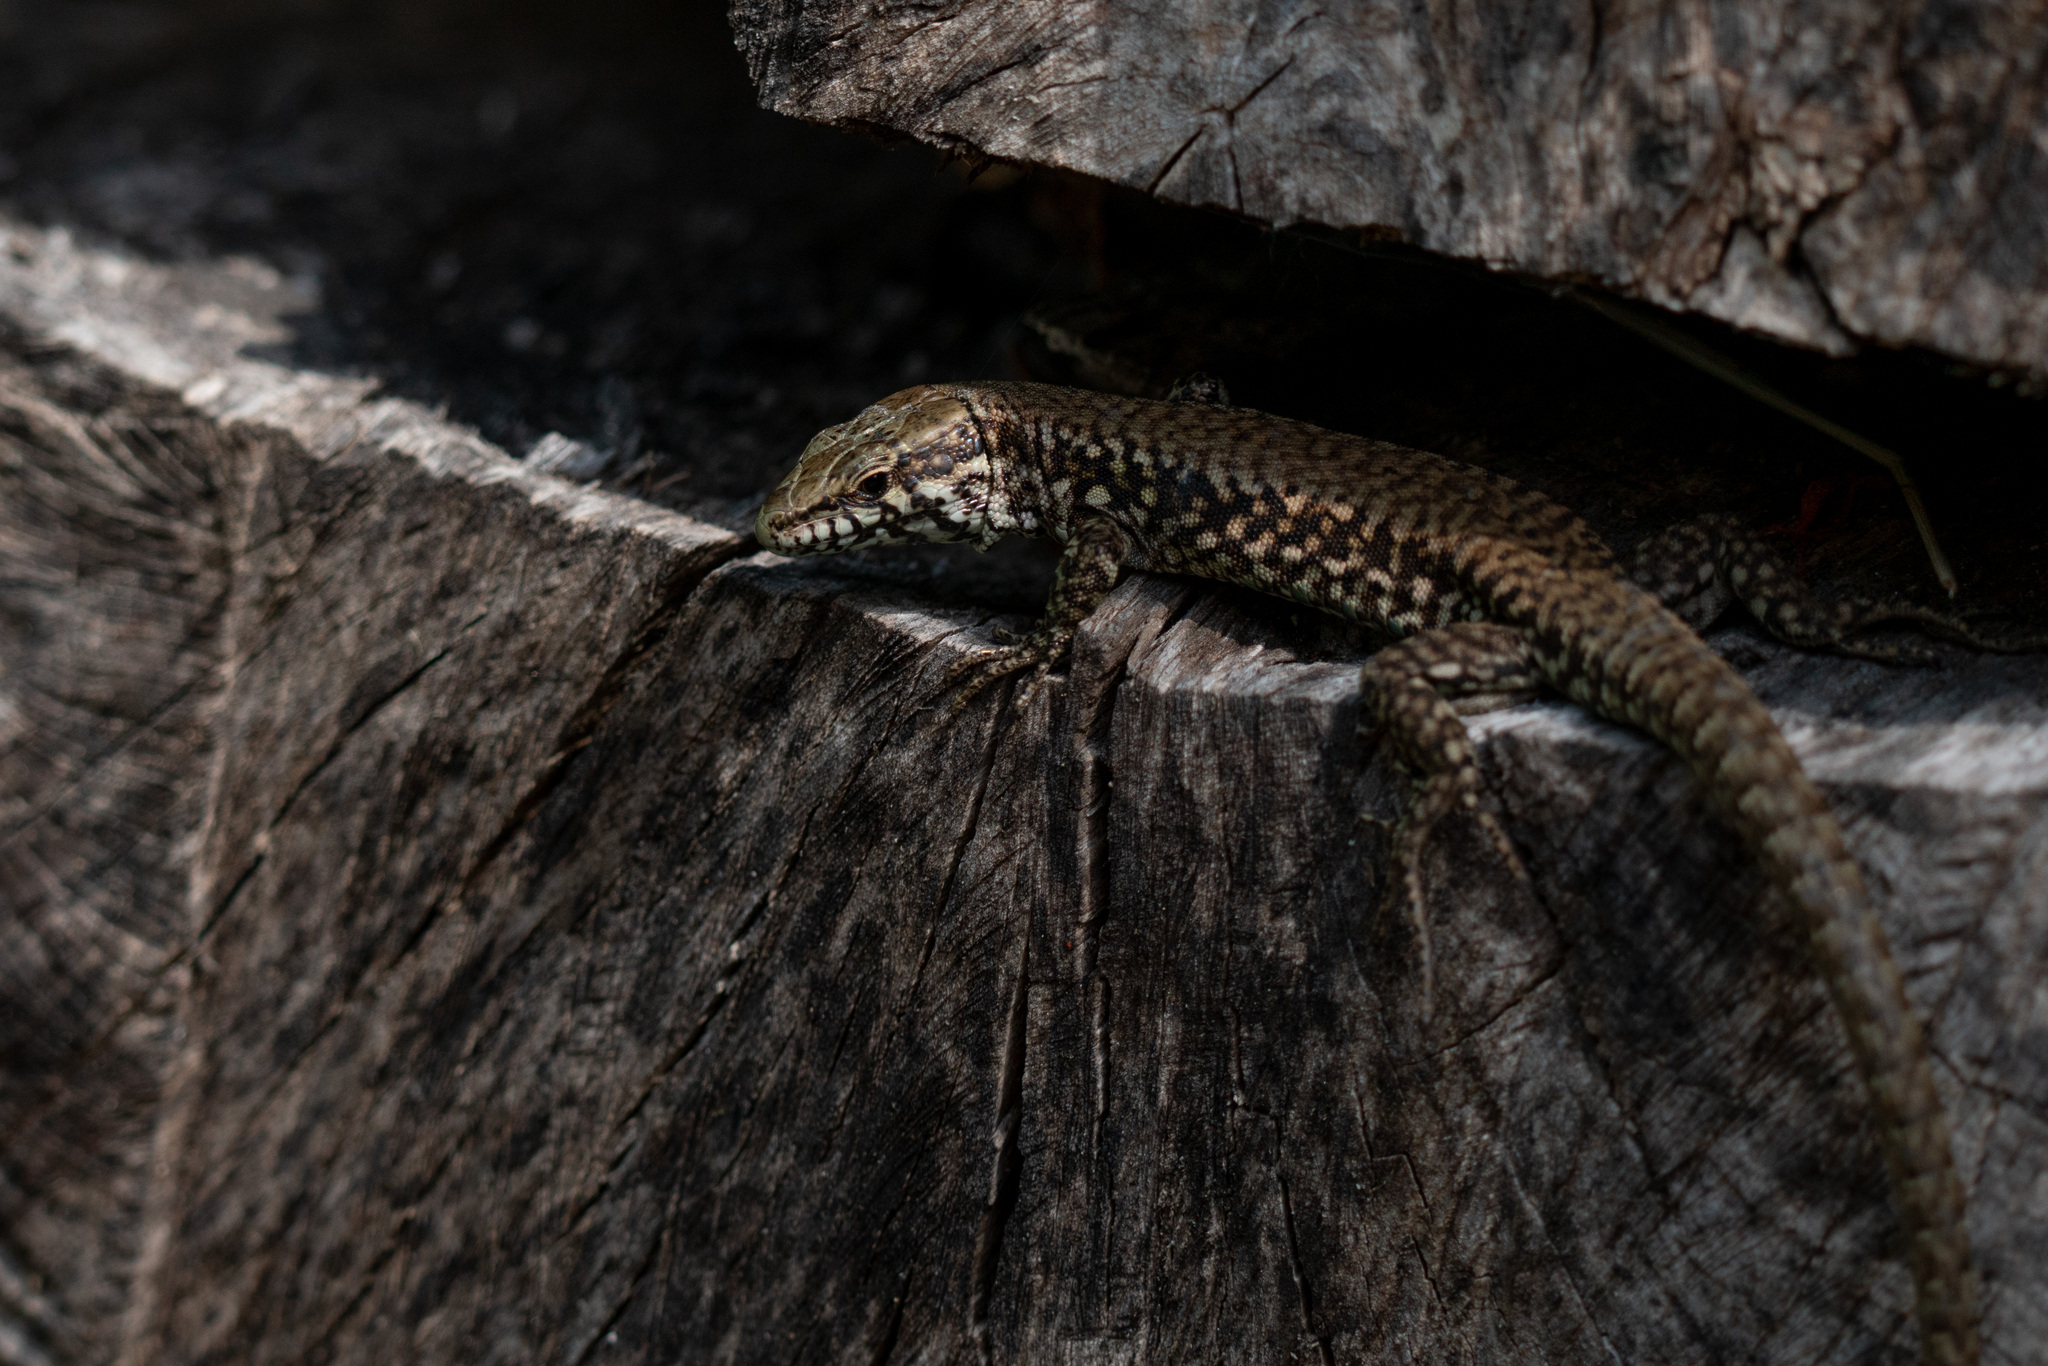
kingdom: Animalia
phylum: Chordata
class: Squamata
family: Lacertidae
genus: Podarcis
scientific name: Podarcis muralis
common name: Common wall lizard
